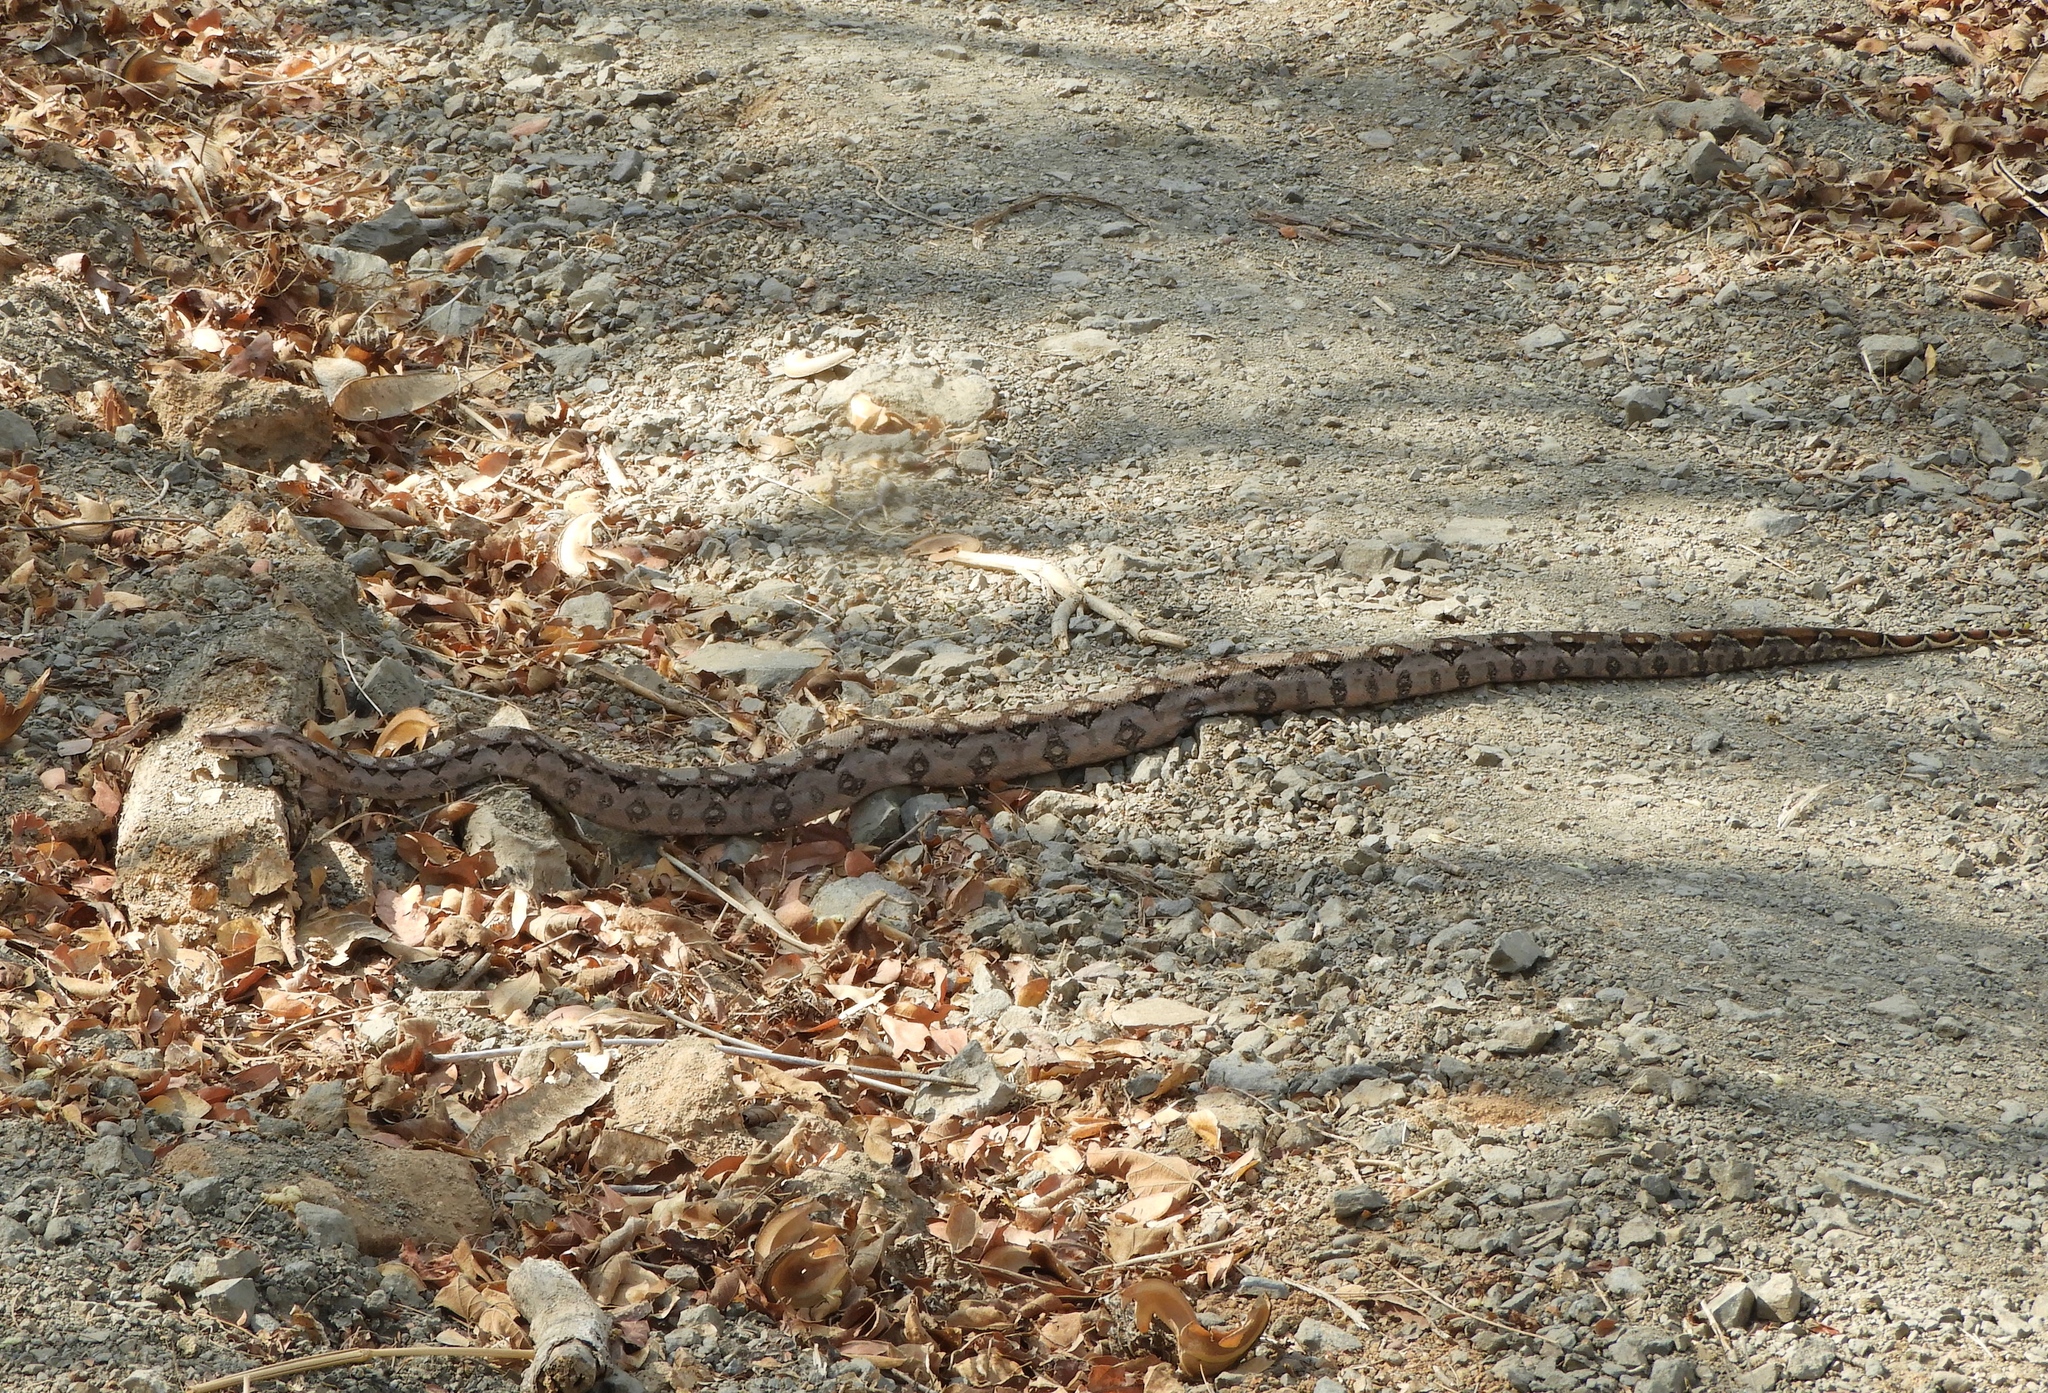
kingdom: Animalia
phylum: Chordata
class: Squamata
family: Boidae
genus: Boa
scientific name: Boa
